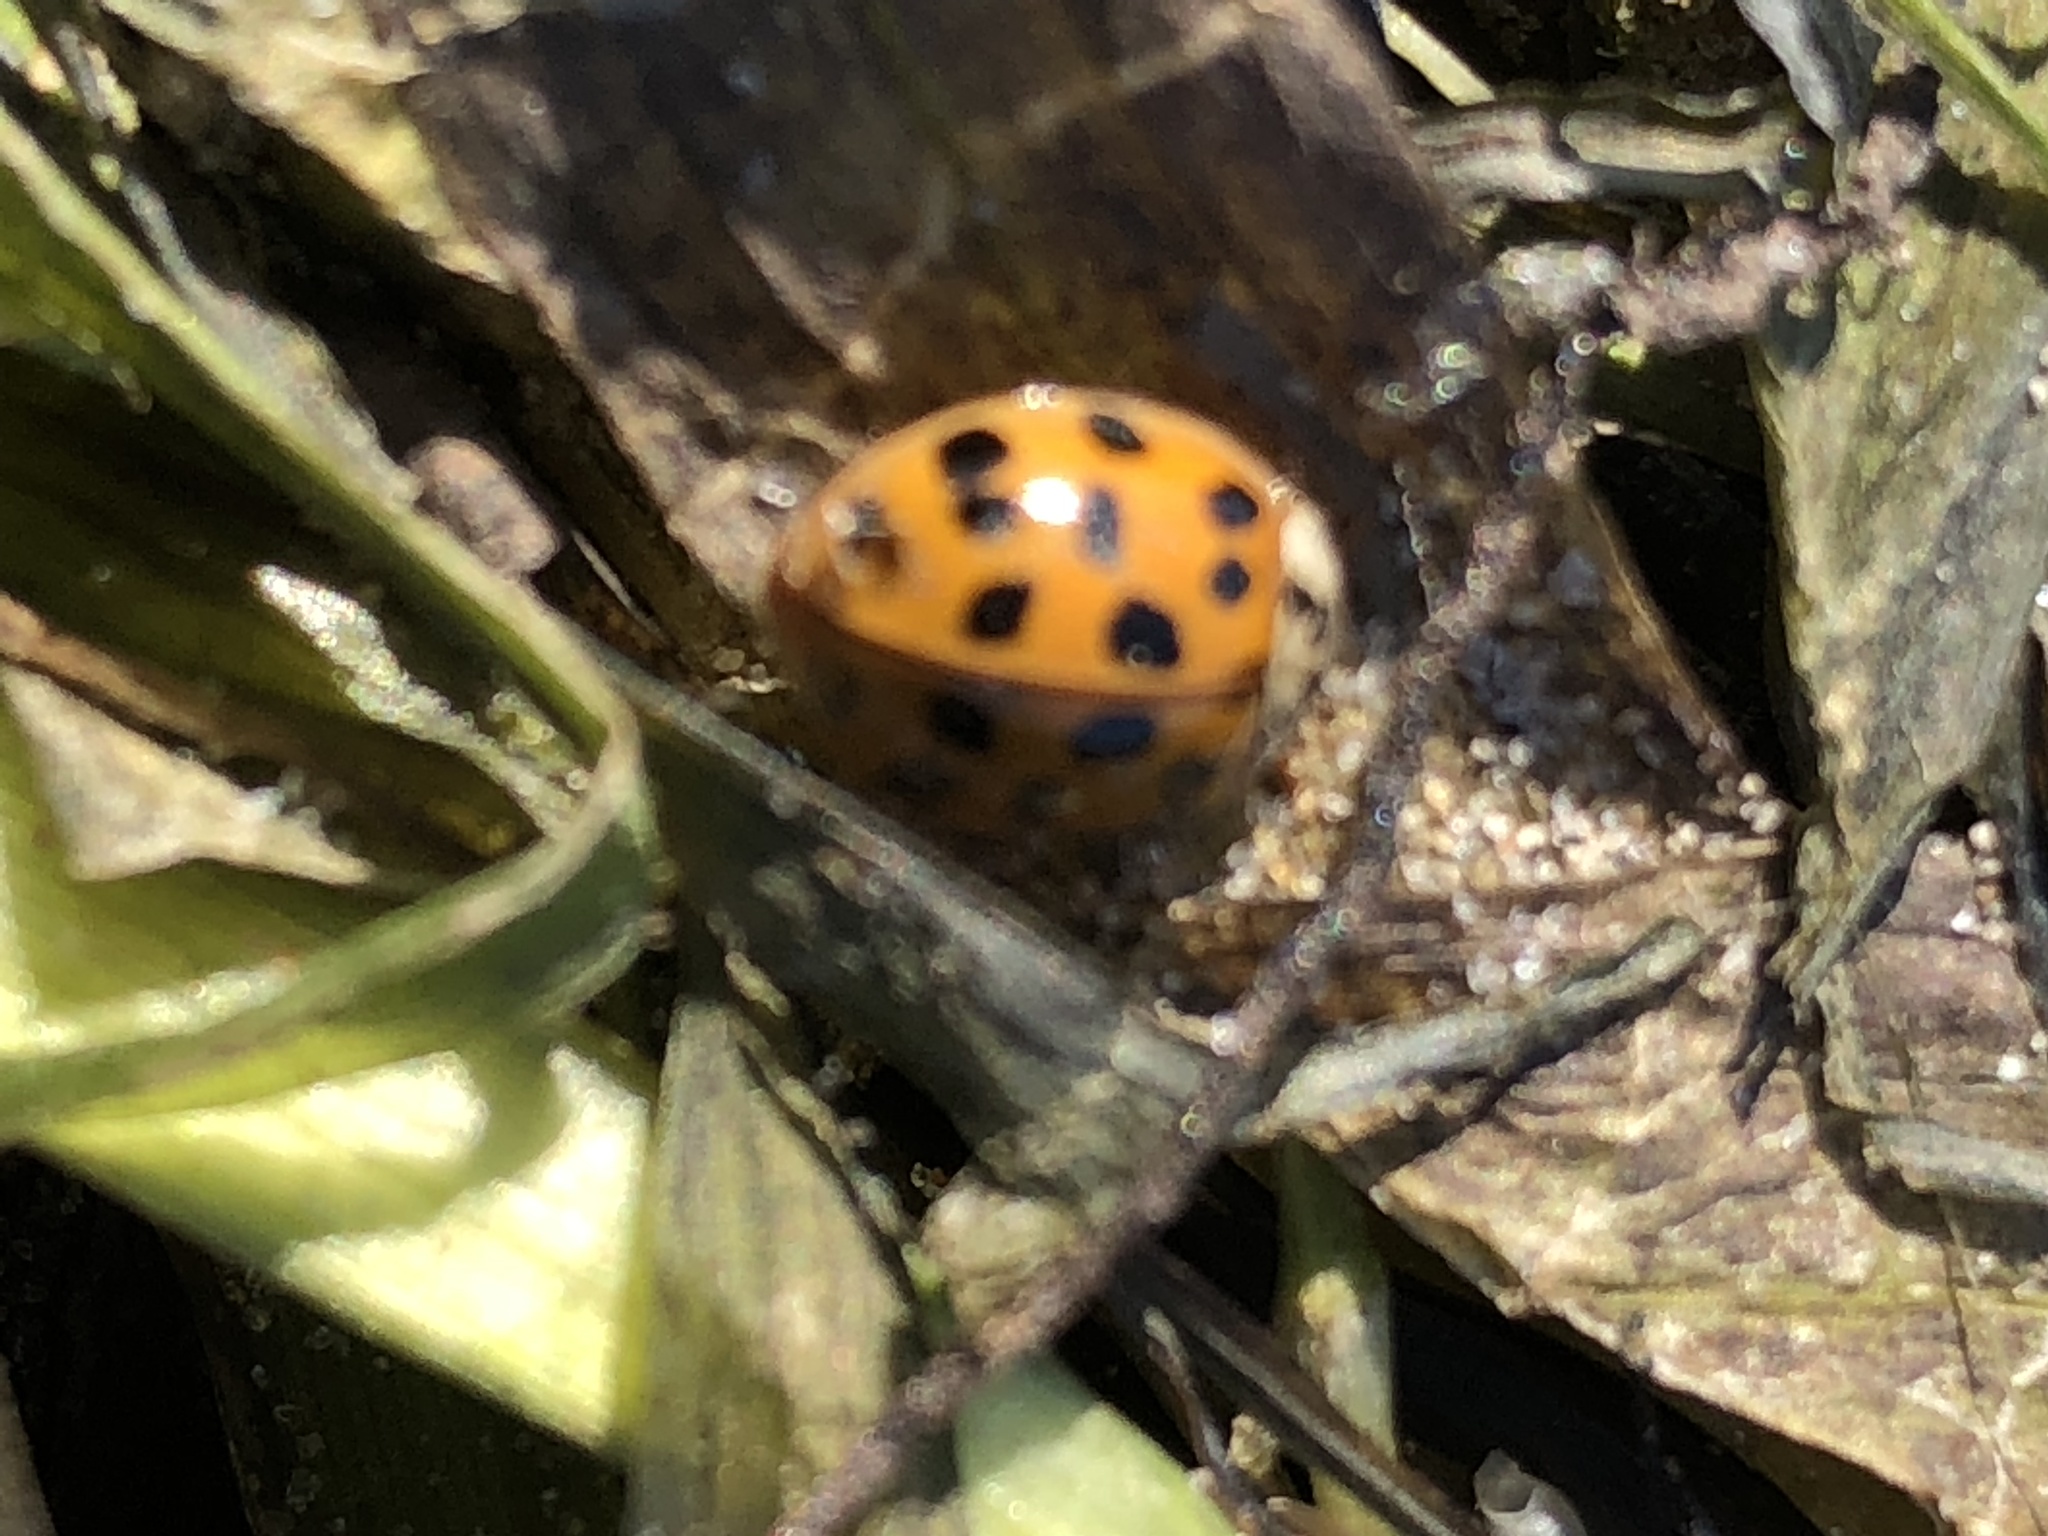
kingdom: Animalia
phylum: Arthropoda
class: Insecta
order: Coleoptera
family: Coccinellidae
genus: Harmonia
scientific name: Harmonia axyridis
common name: Harlequin ladybird
